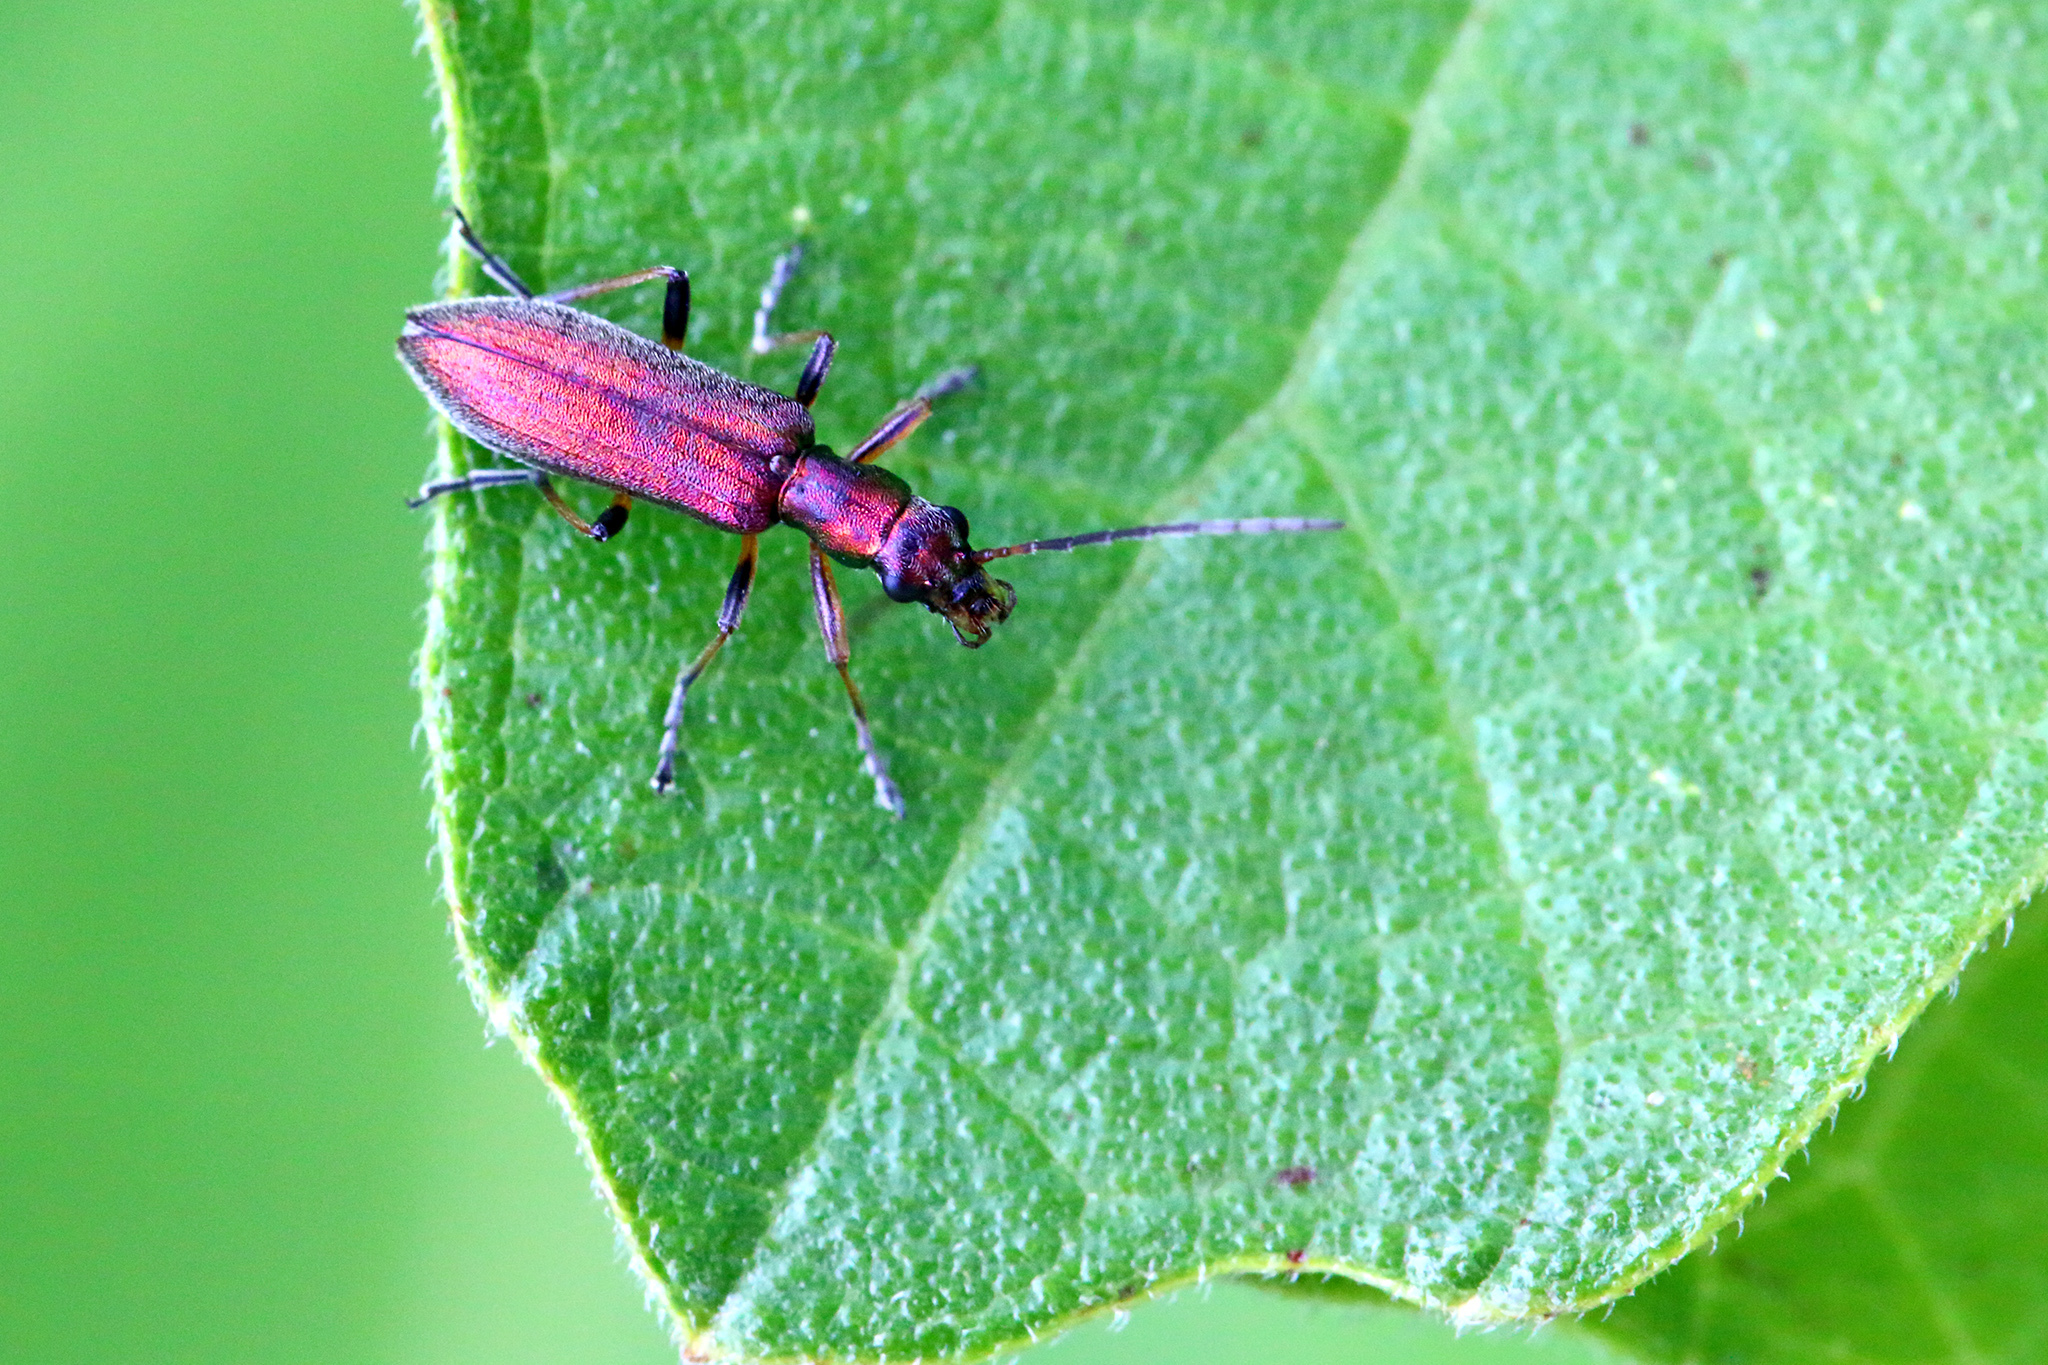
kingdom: Animalia
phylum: Arthropoda
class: Insecta
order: Coleoptera
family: Oedemeridae
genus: Chrysanthia
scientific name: Chrysanthia geniculata
